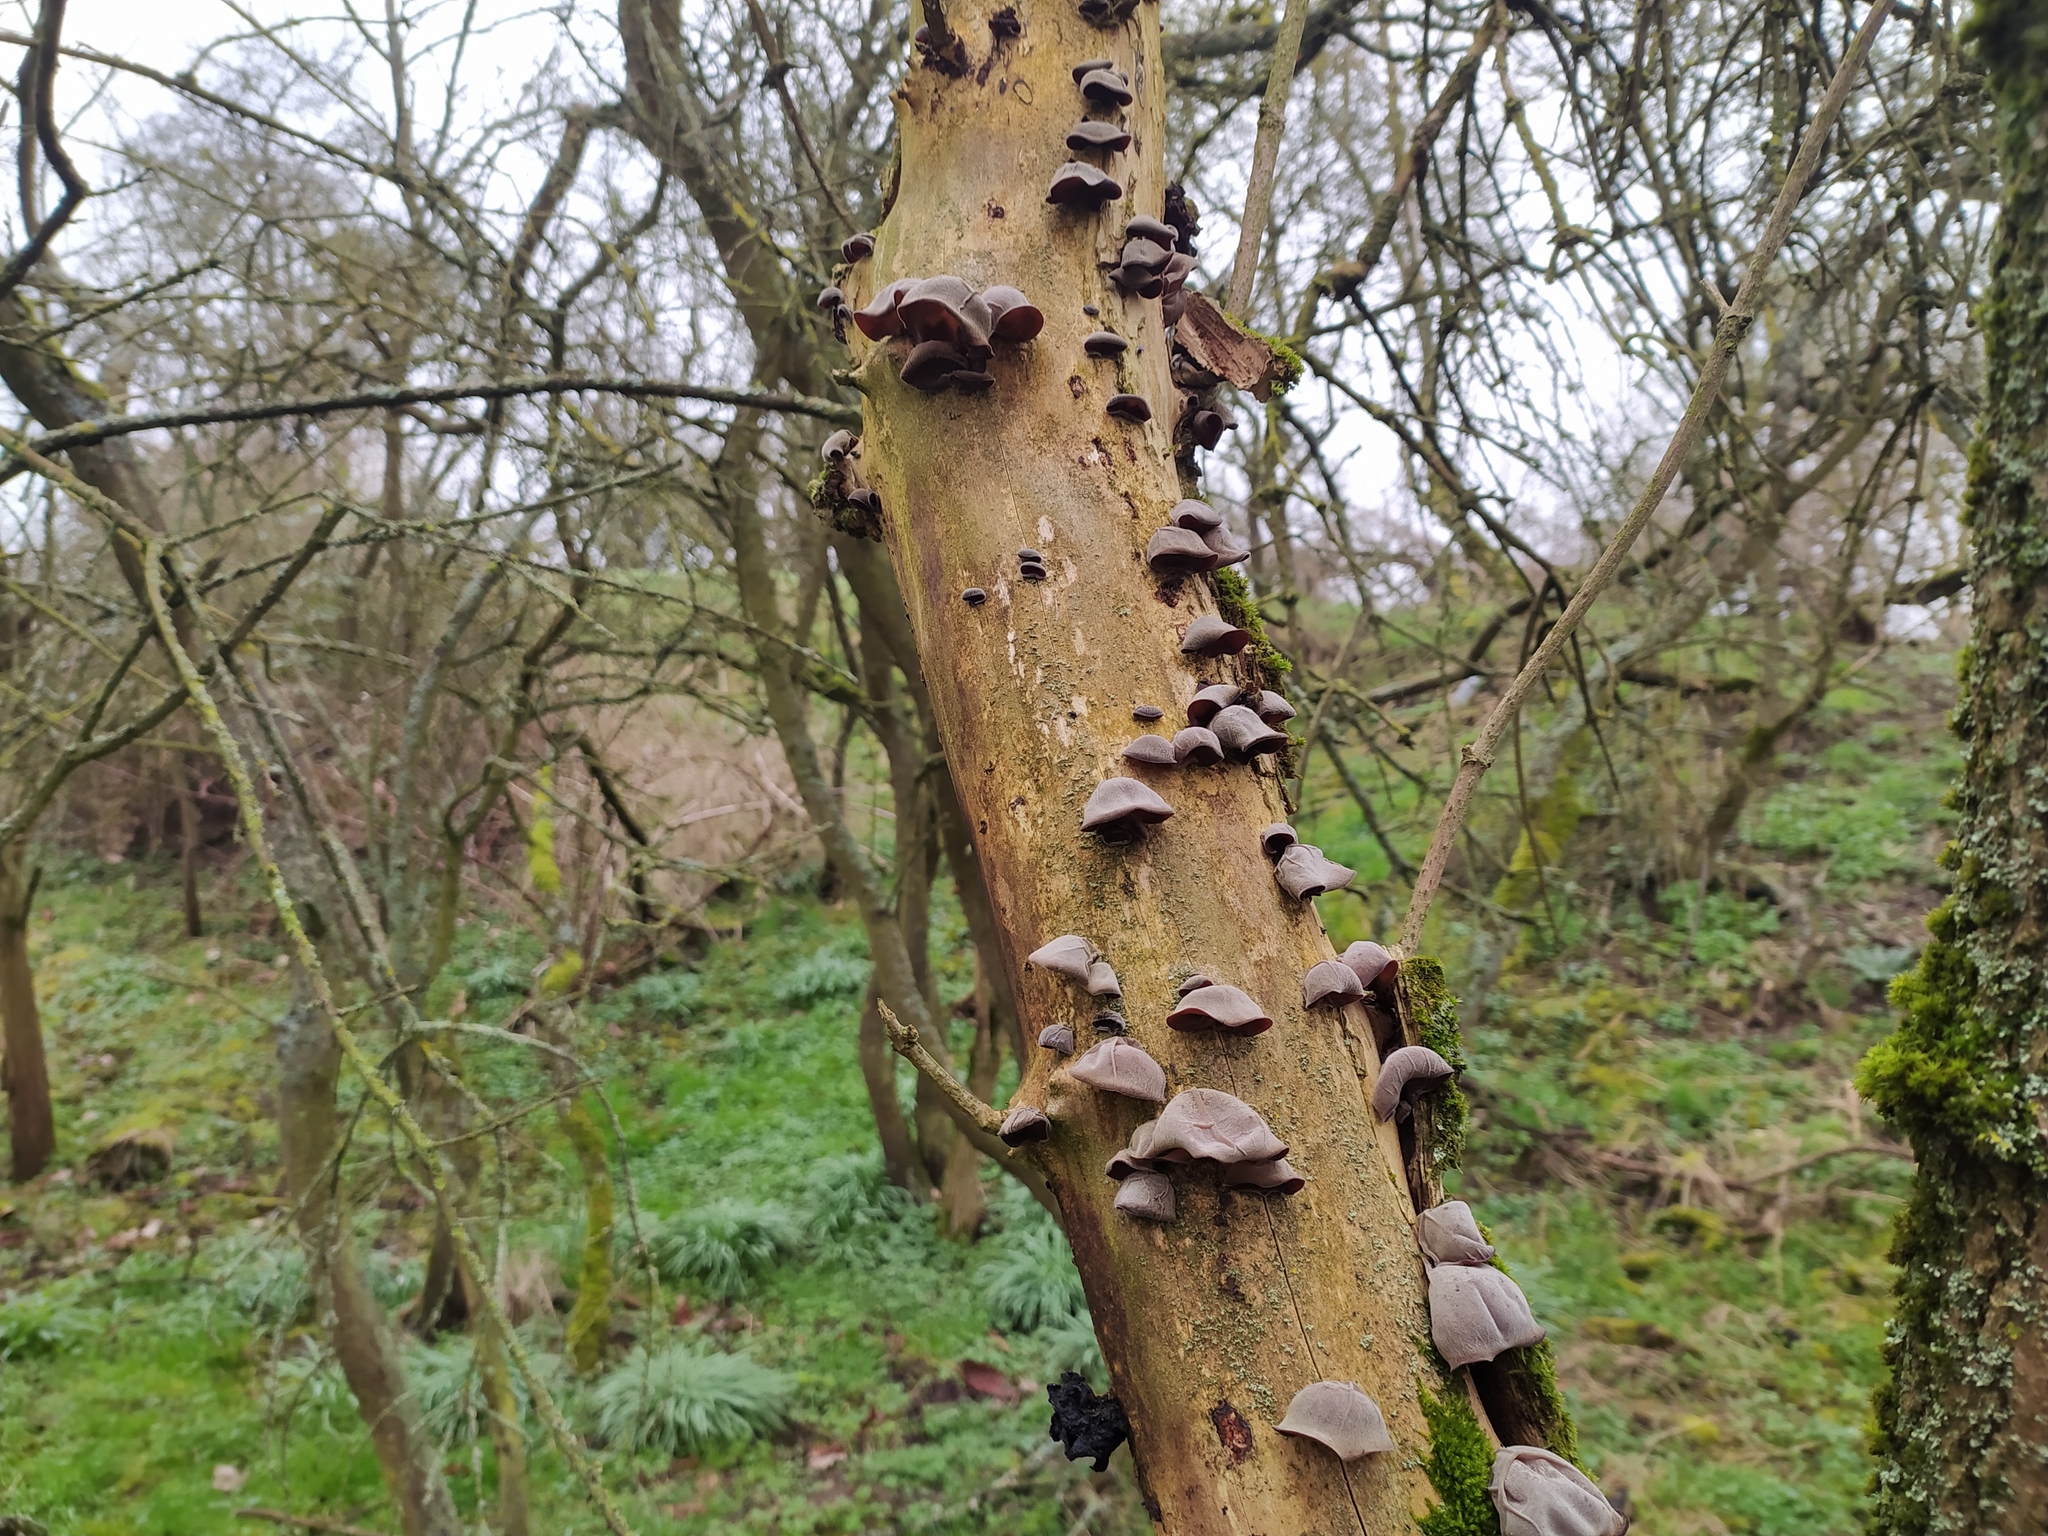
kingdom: Fungi
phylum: Basidiomycota
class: Agaricomycetes
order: Auriculariales
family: Auriculariaceae
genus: Auricularia
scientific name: Auricularia auricula-judae
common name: Jelly ear
